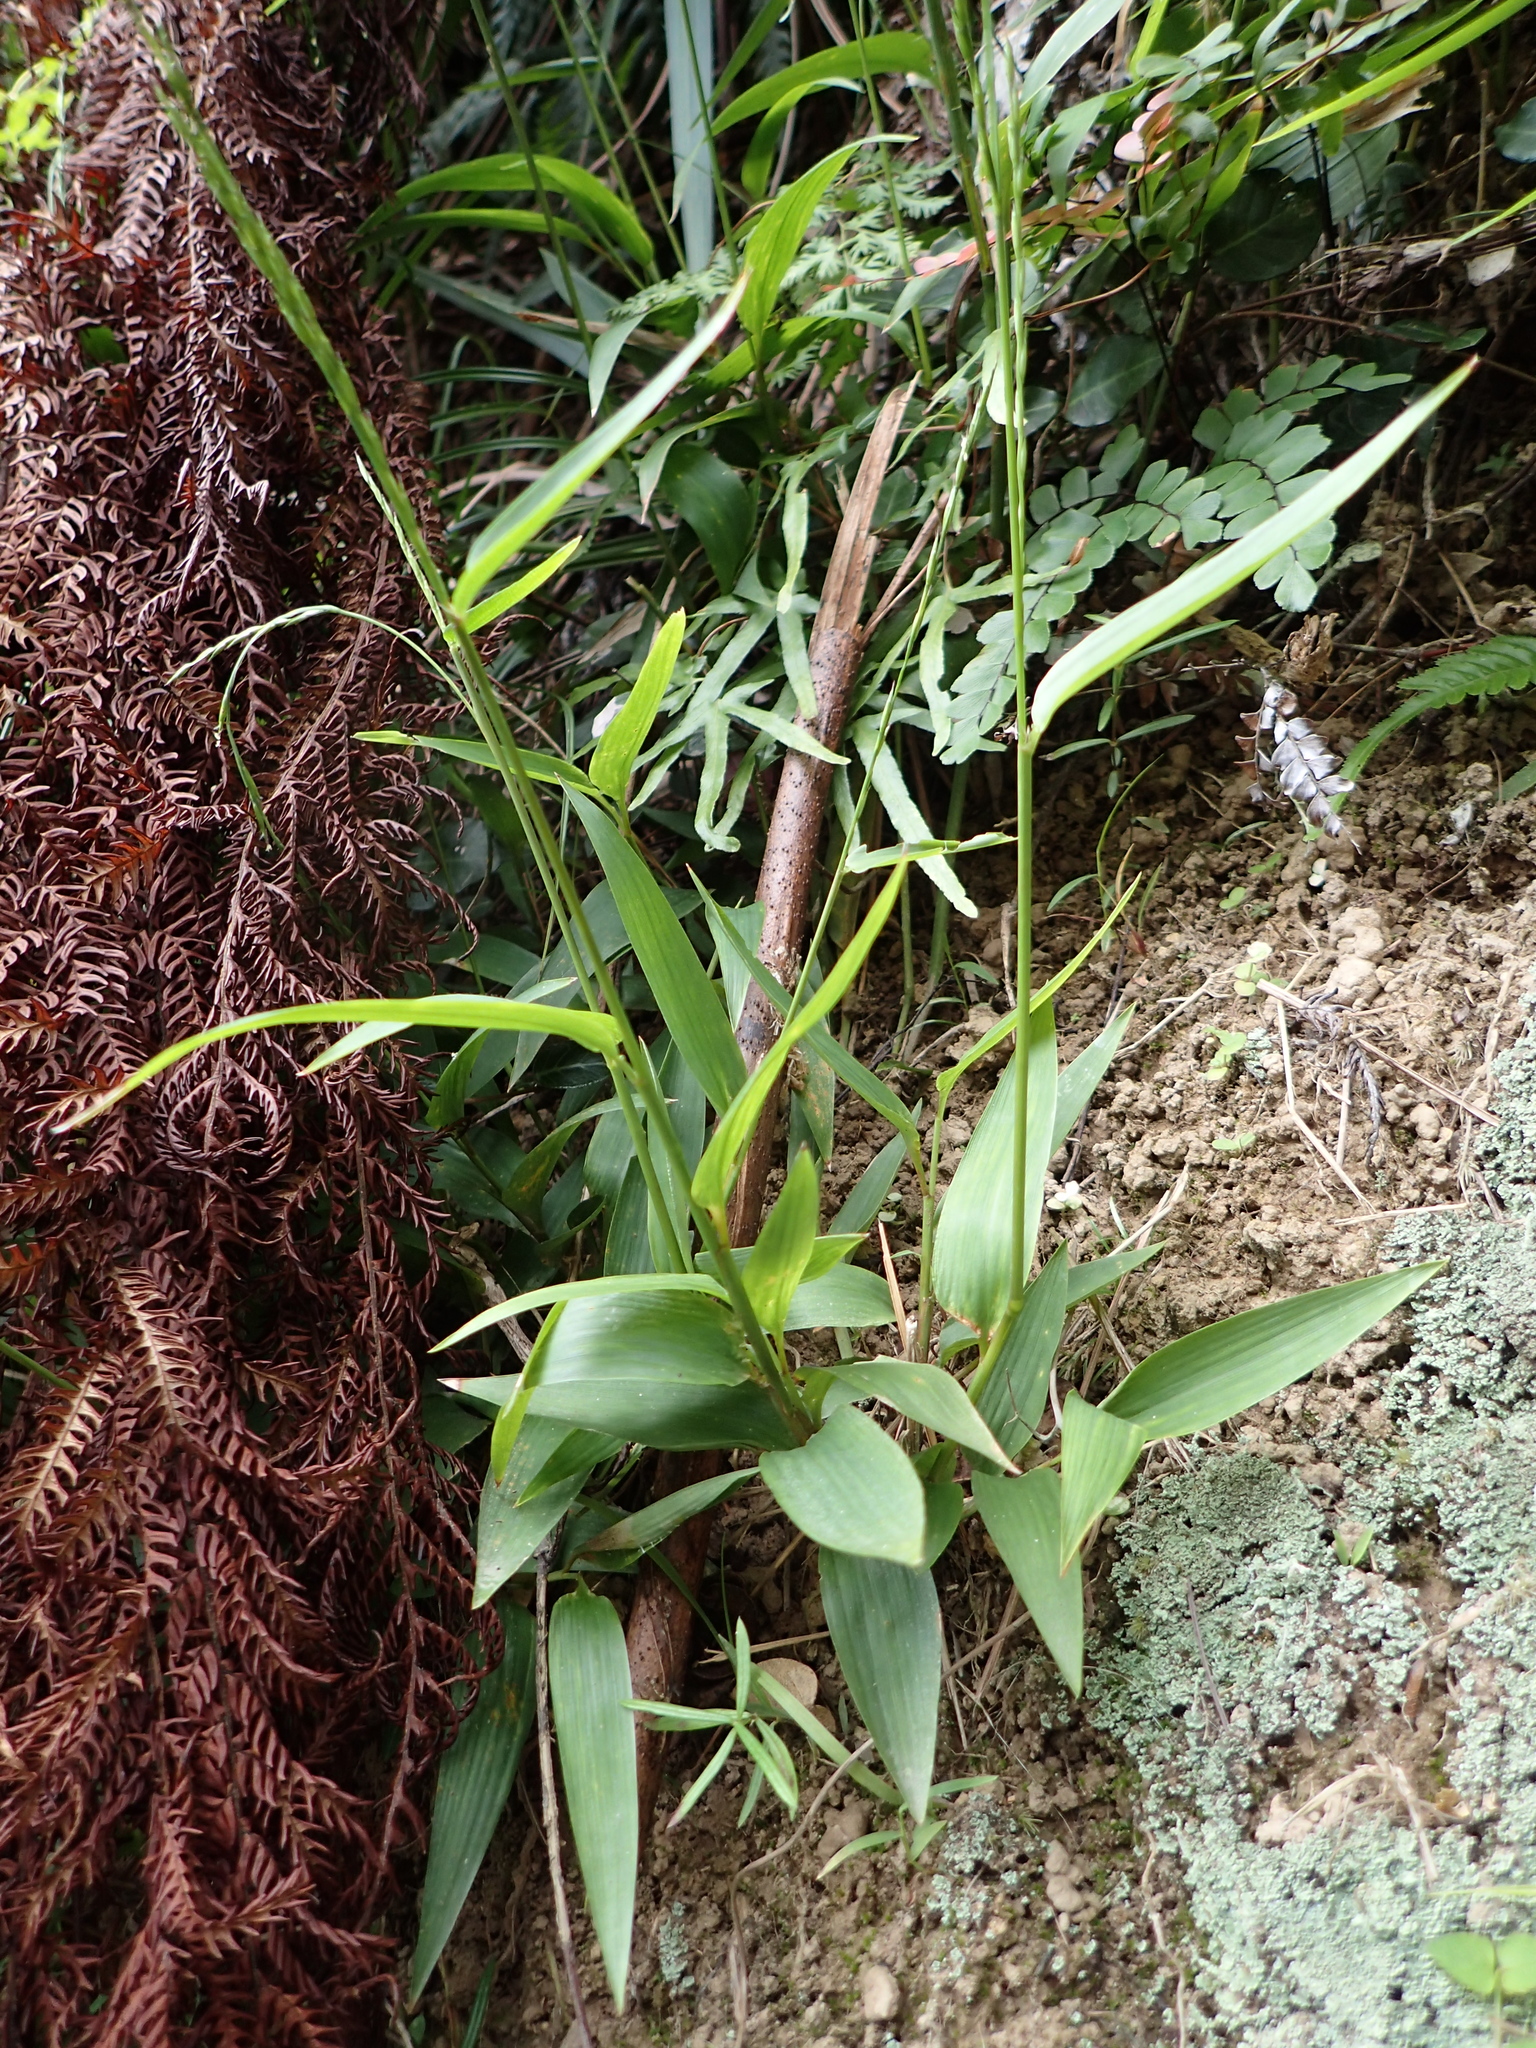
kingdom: Plantae
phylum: Tracheophyta
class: Liliopsida
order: Poales
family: Poaceae
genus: Lophatherum
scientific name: Lophatherum gracile
